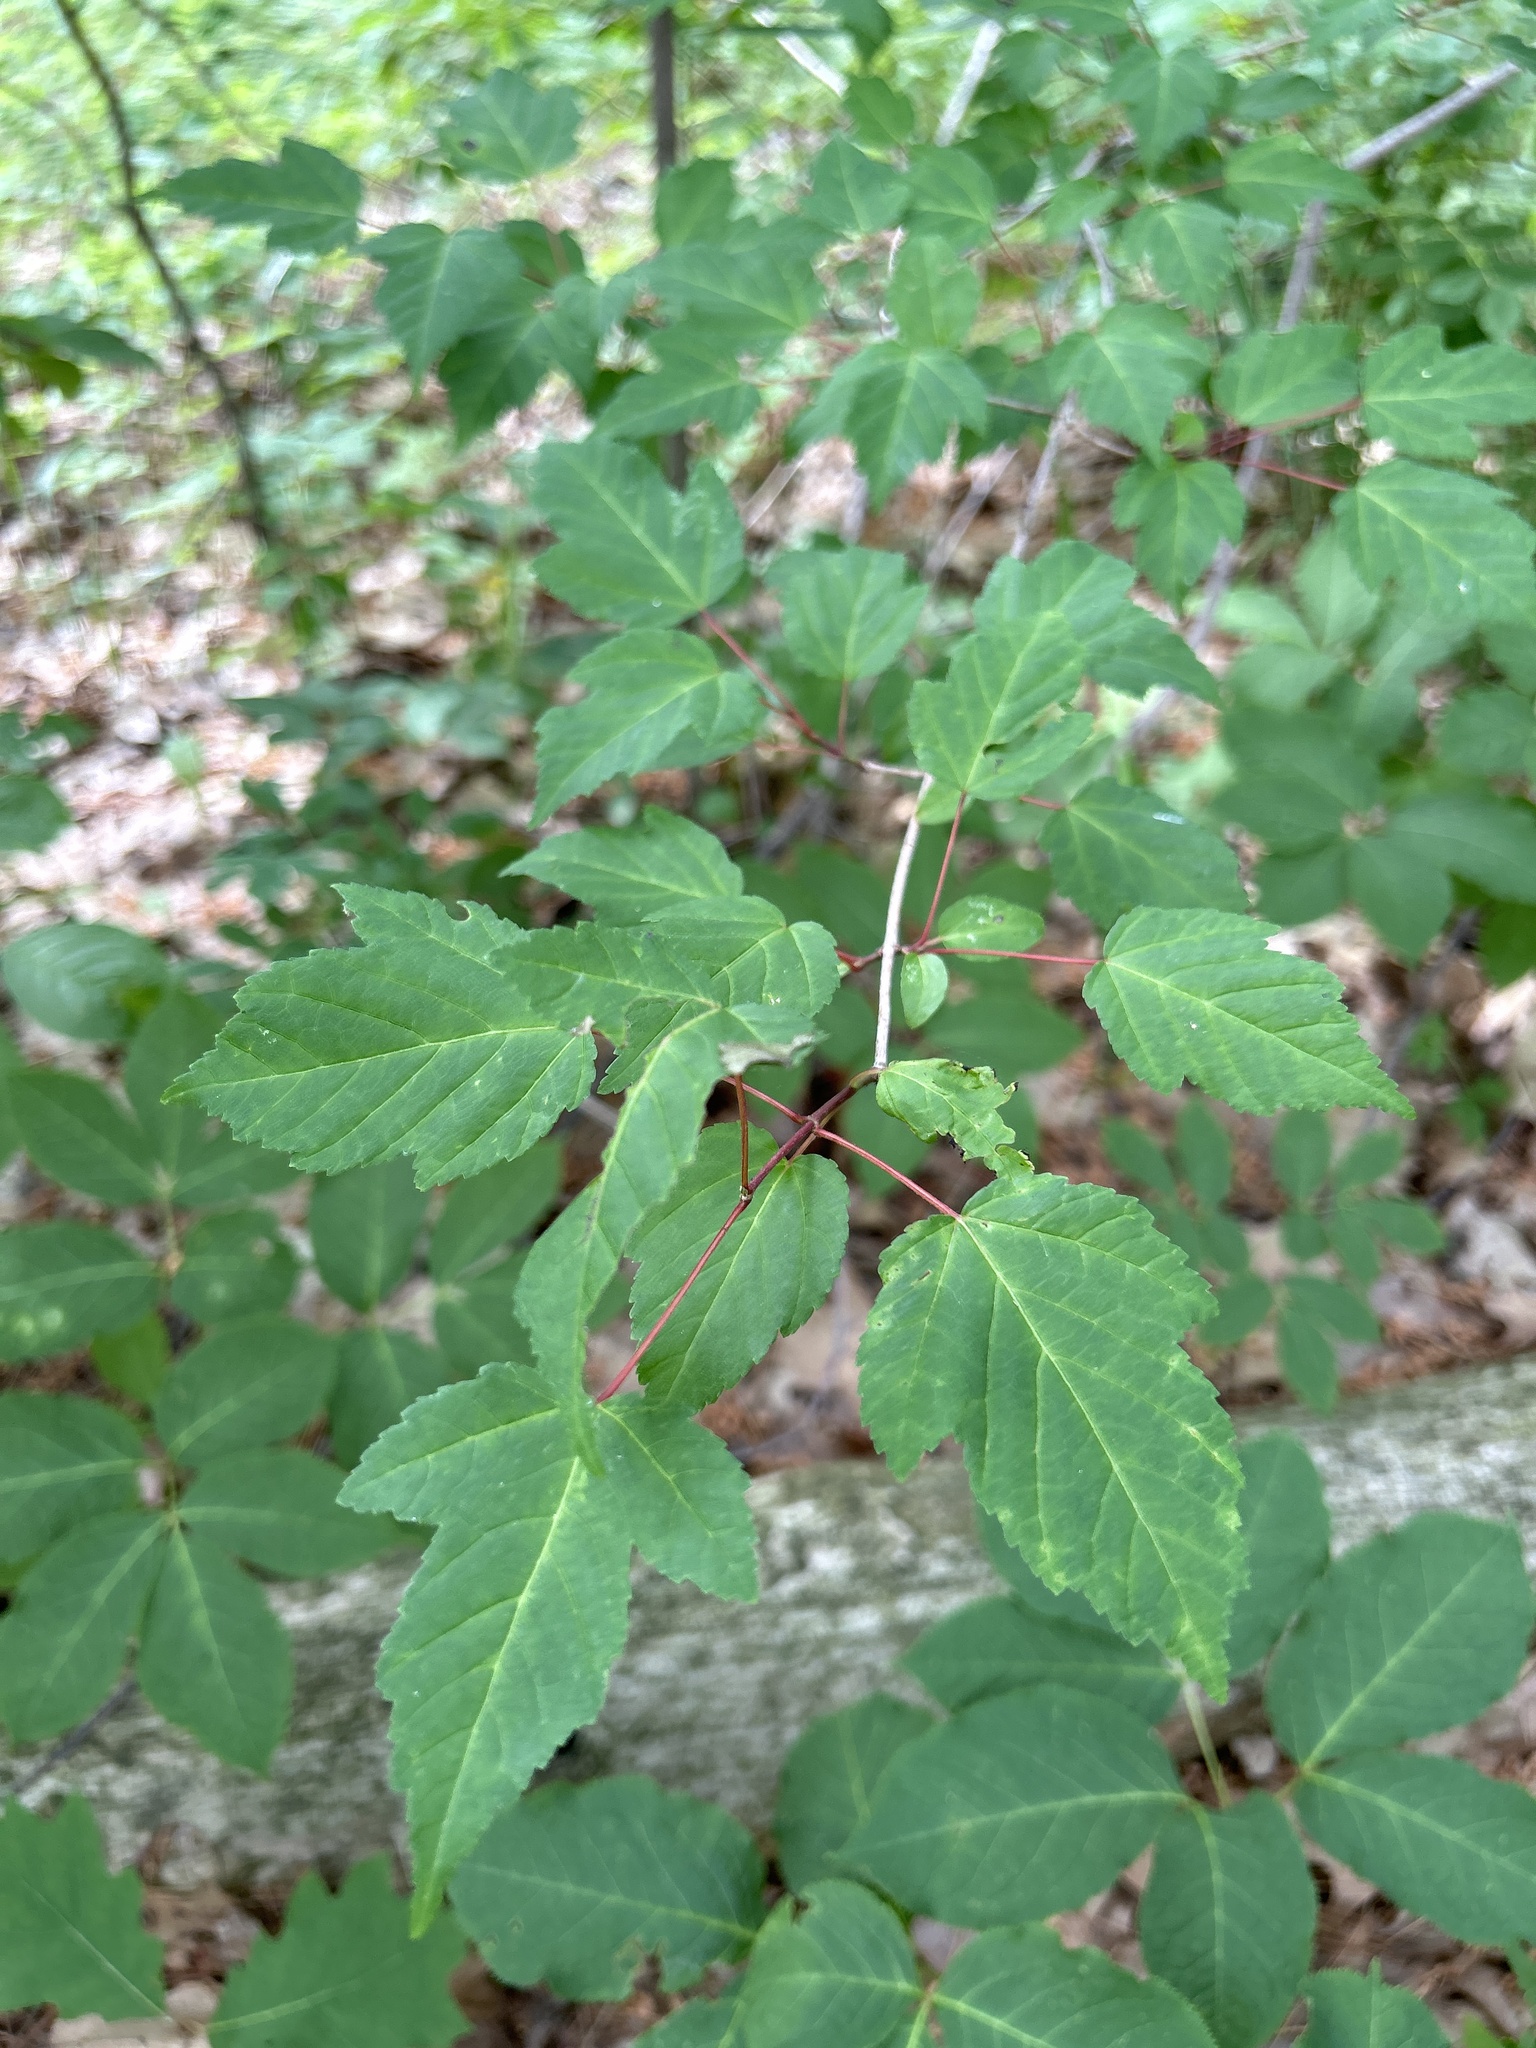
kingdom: Plantae
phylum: Tracheophyta
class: Magnoliopsida
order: Sapindales
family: Sapindaceae
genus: Acer
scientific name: Acer negundo
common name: Ashleaf maple
